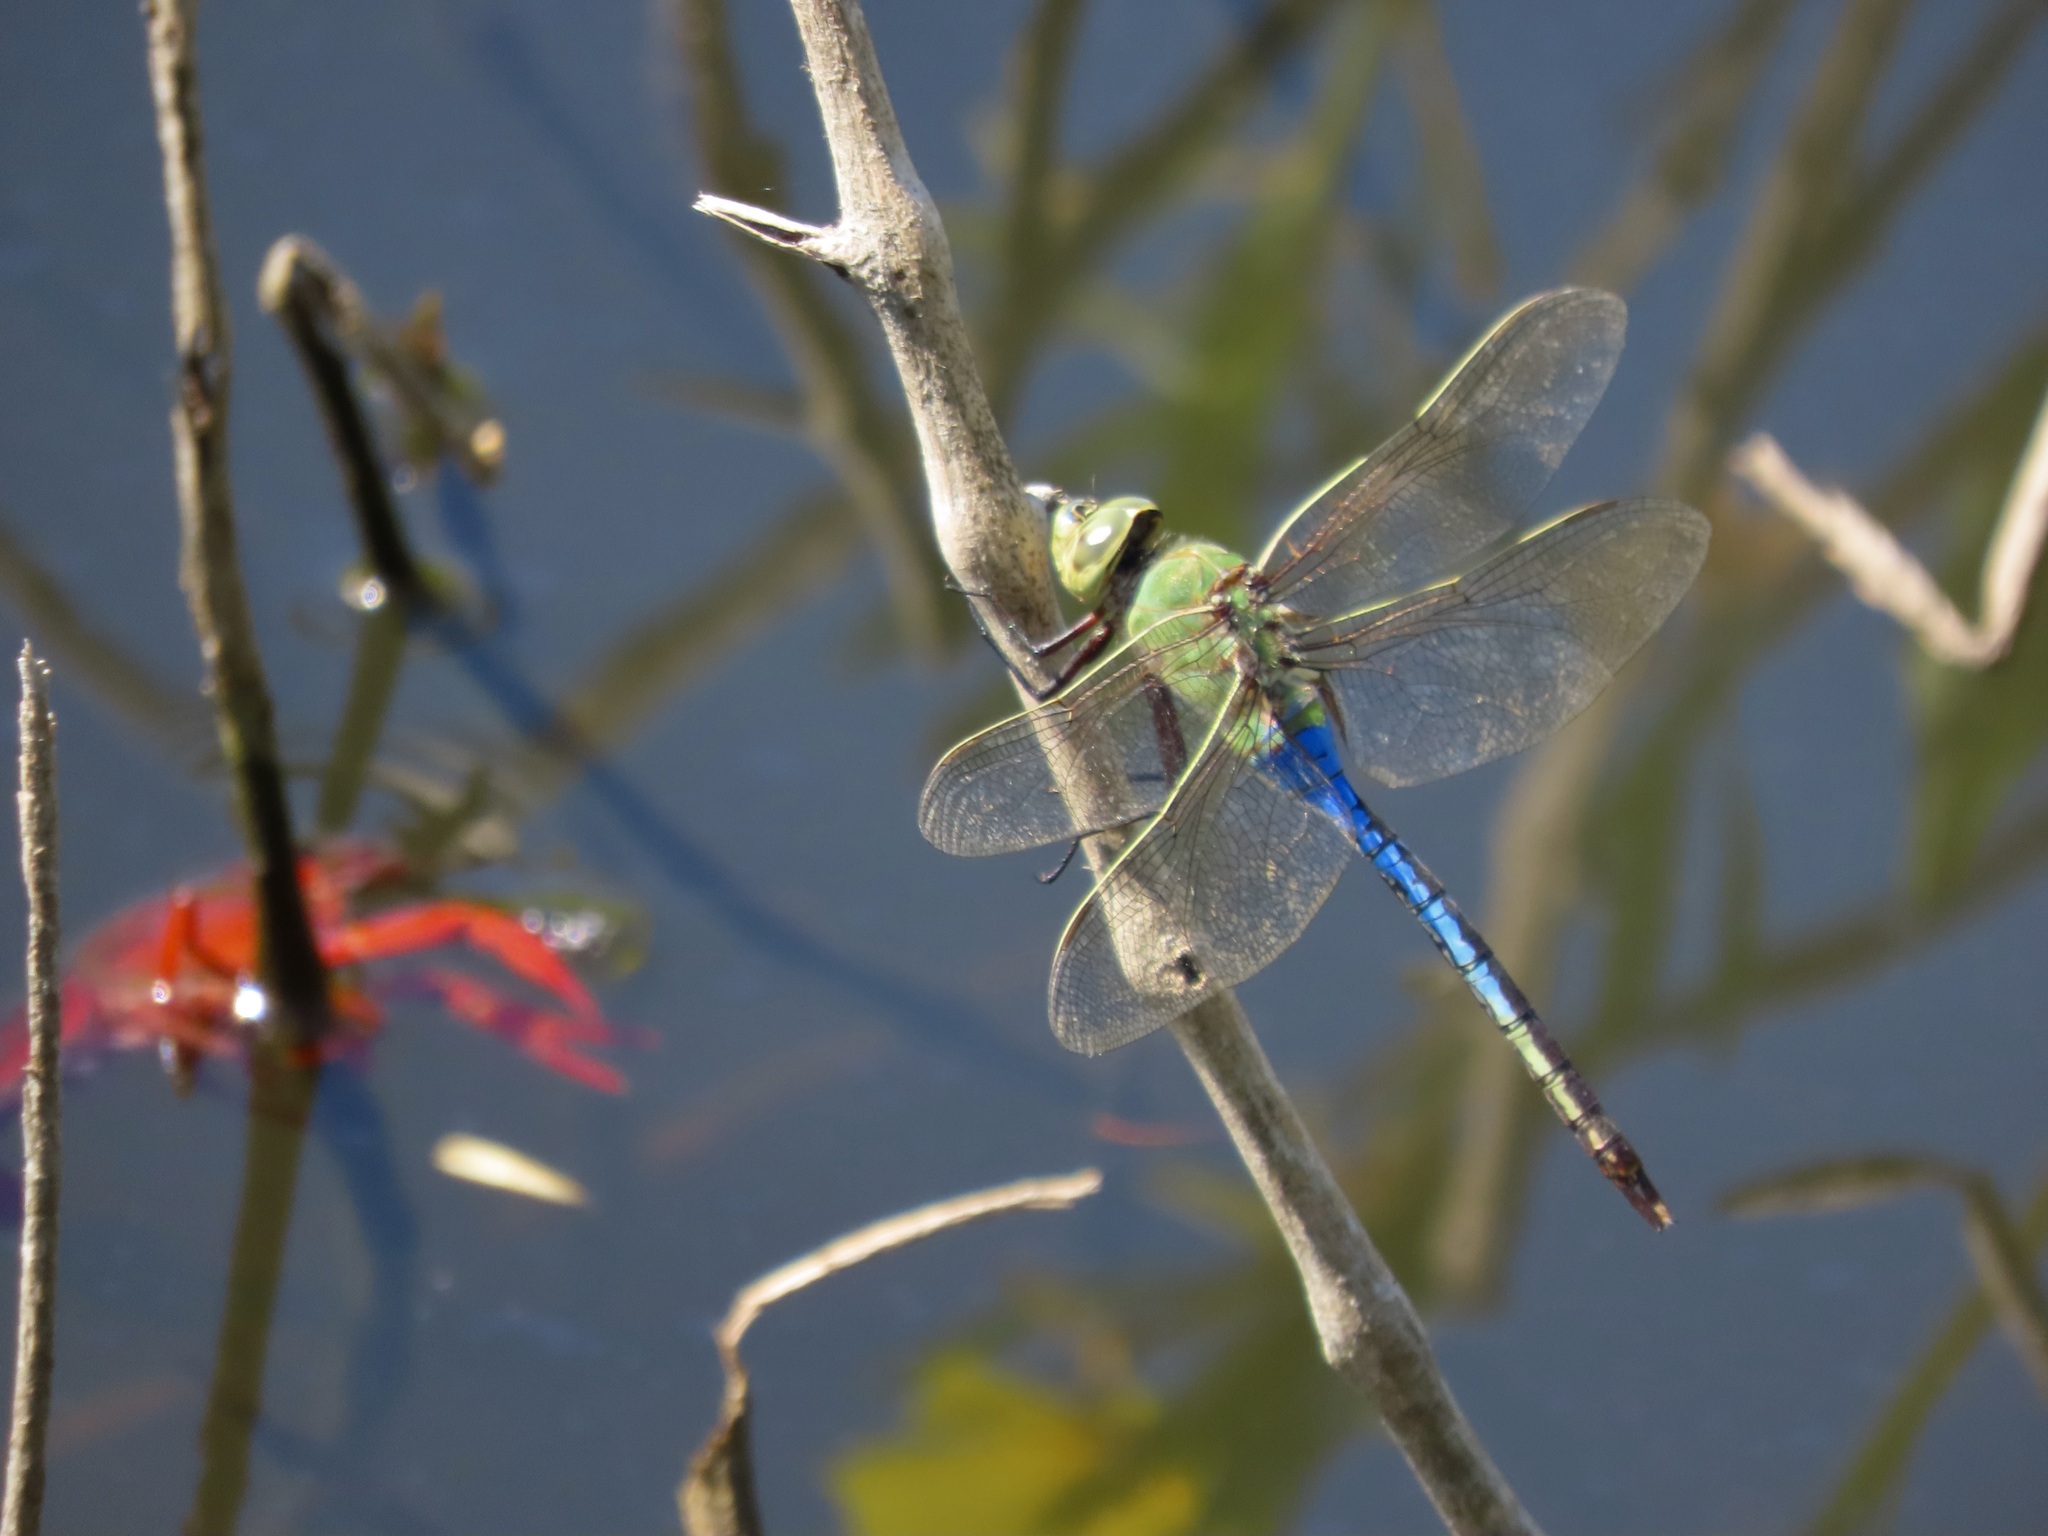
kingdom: Animalia
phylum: Arthropoda
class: Insecta
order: Odonata
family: Aeshnidae
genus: Anax
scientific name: Anax junius
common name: Common green darner
